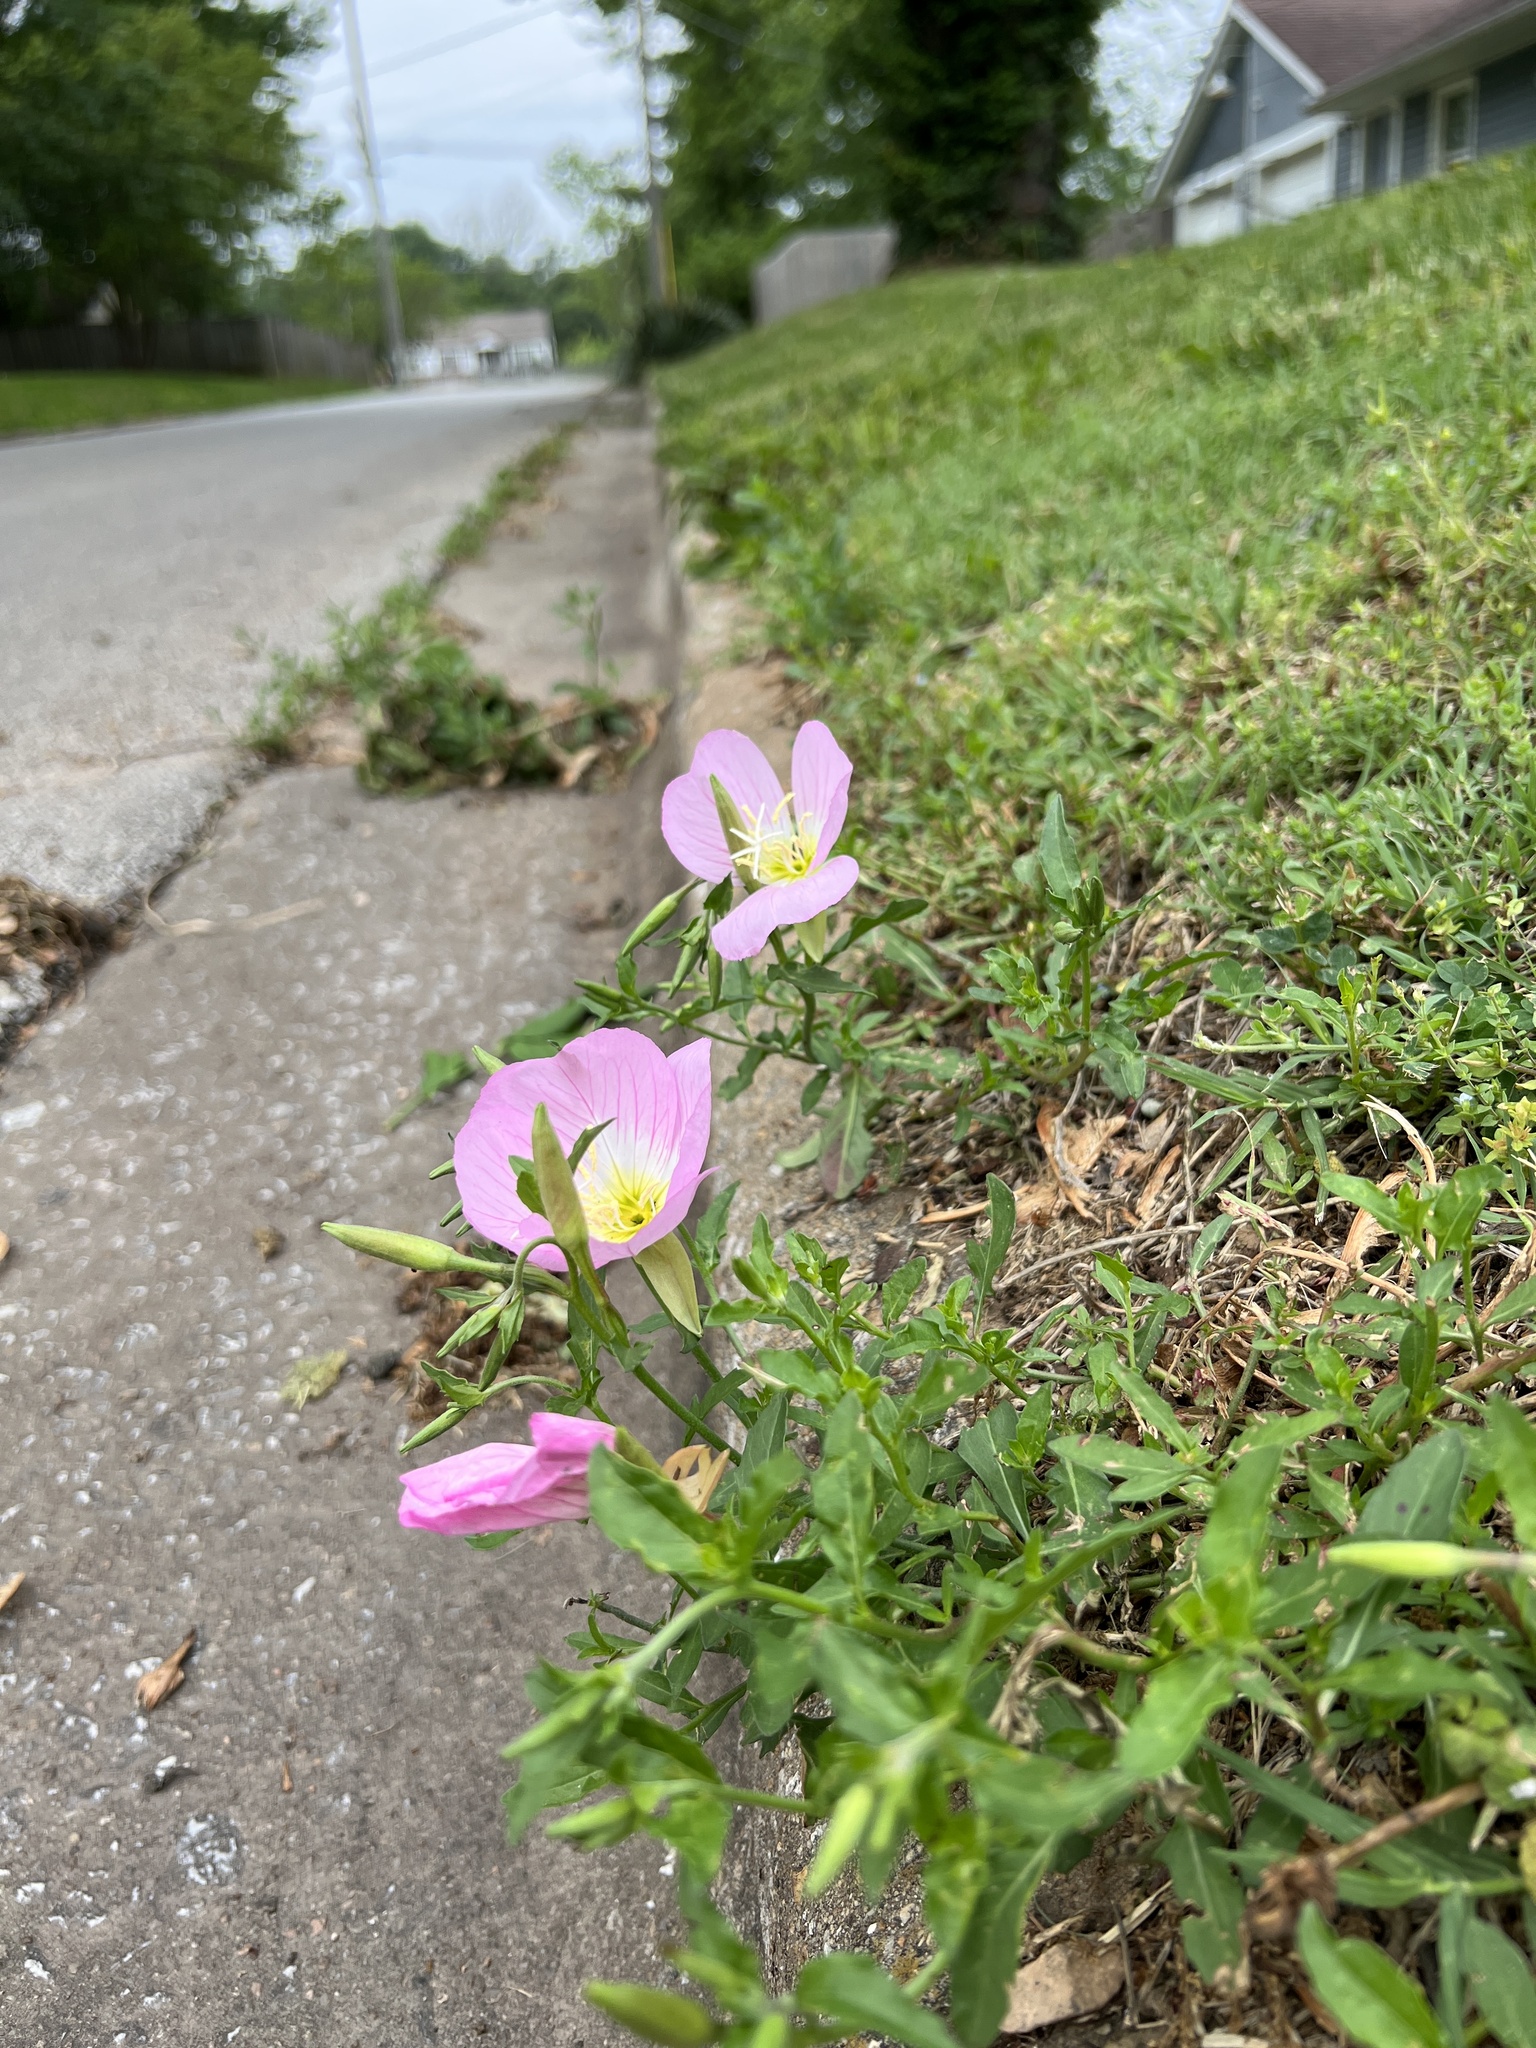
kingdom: Plantae
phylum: Tracheophyta
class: Magnoliopsida
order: Myrtales
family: Onagraceae
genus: Oenothera
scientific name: Oenothera speciosa
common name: White evening-primrose
